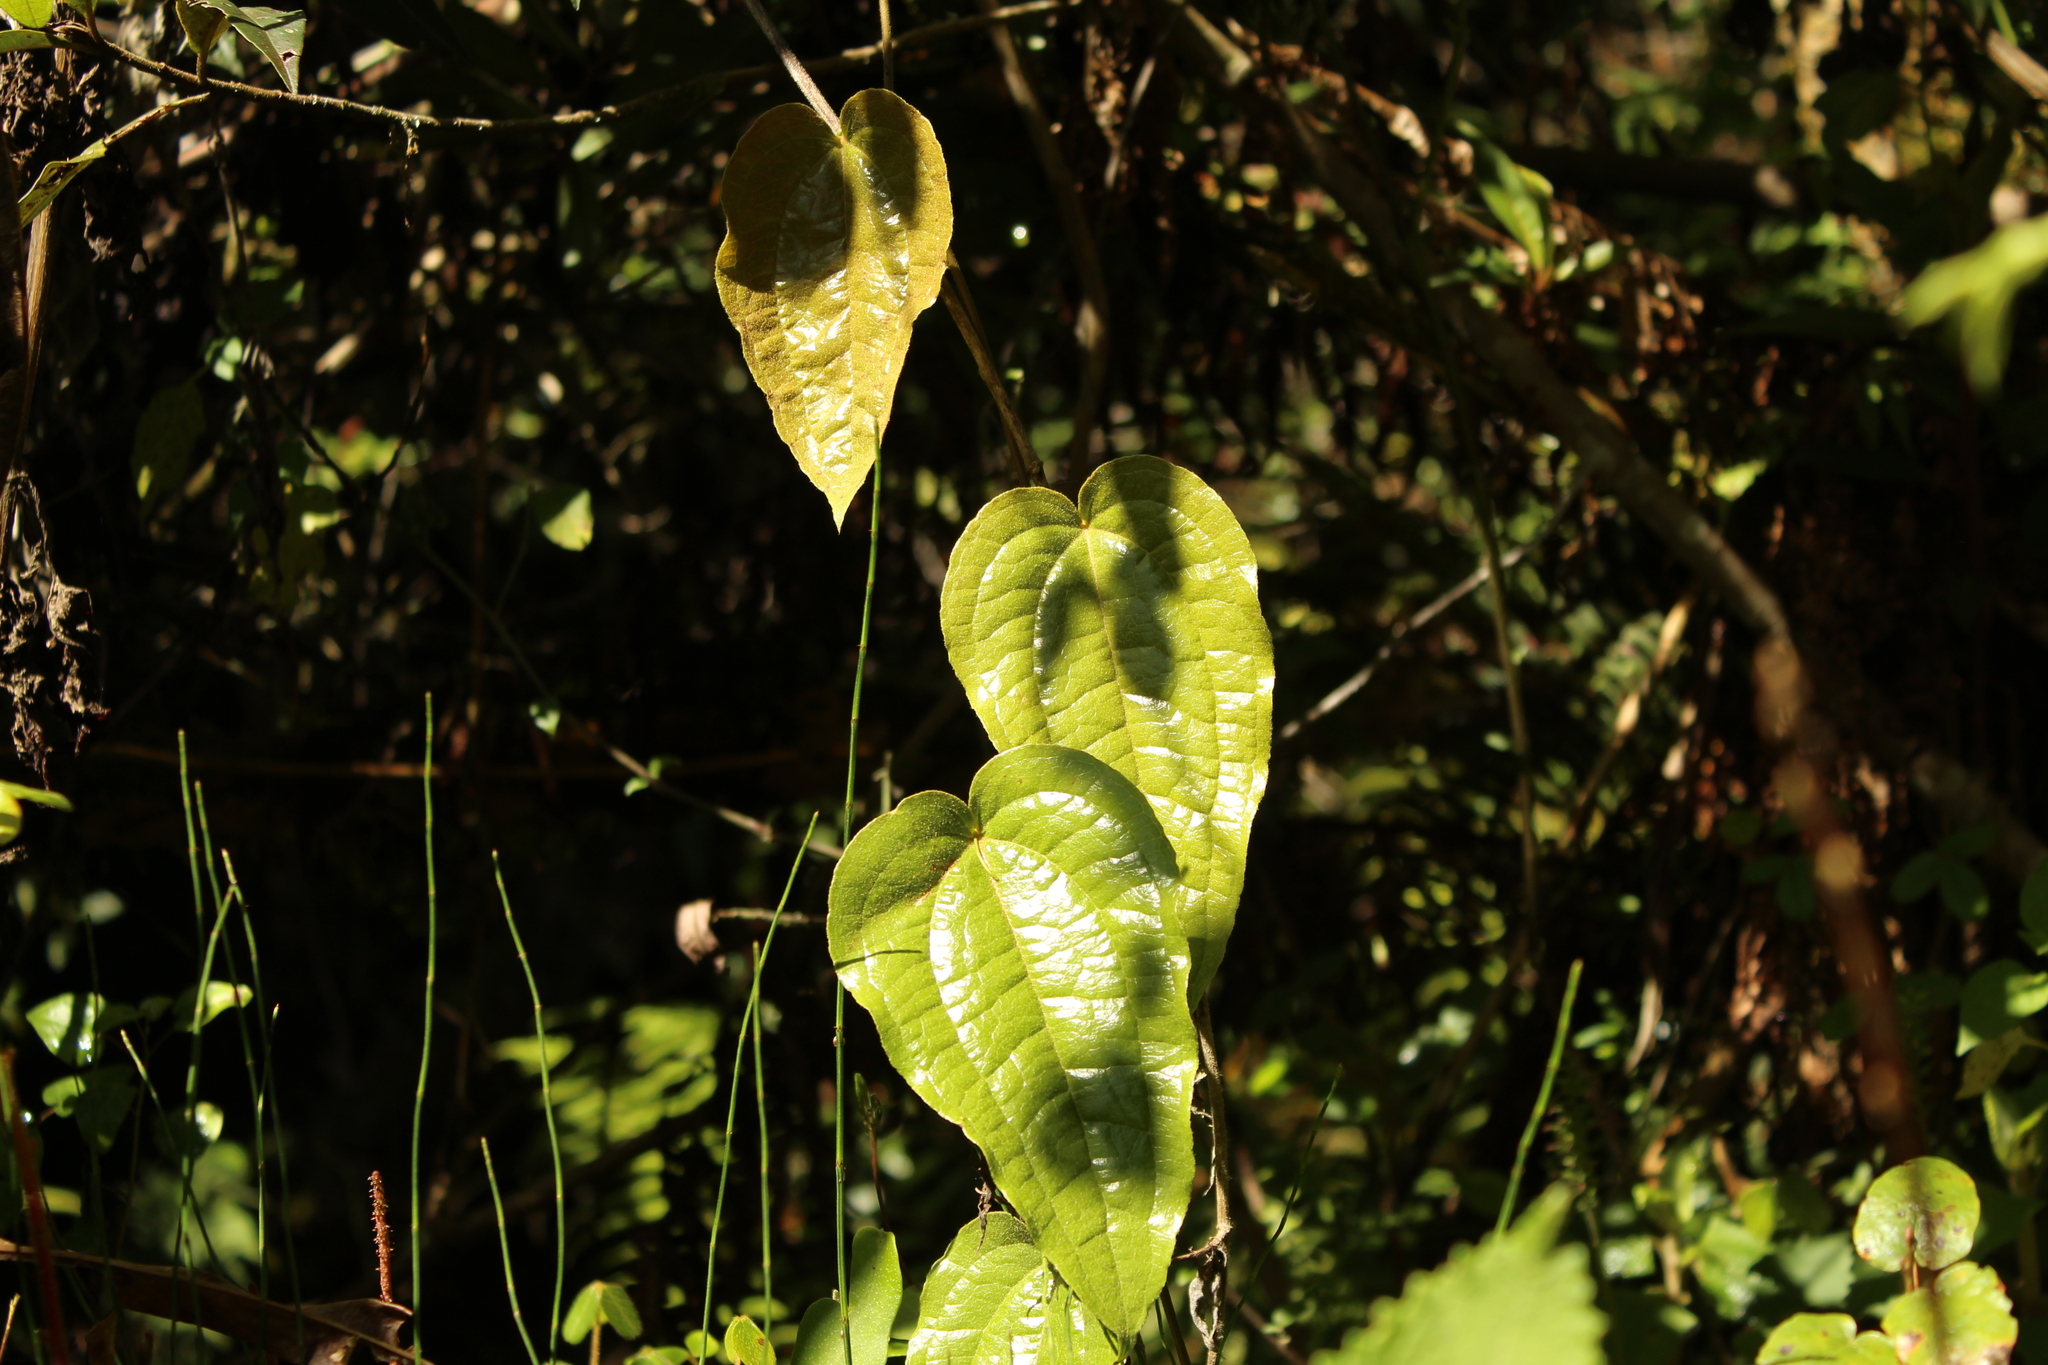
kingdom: Plantae
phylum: Tracheophyta
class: Liliopsida
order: Liliales
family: Smilacaceae
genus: Smilax
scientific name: Smilax tomentosa
